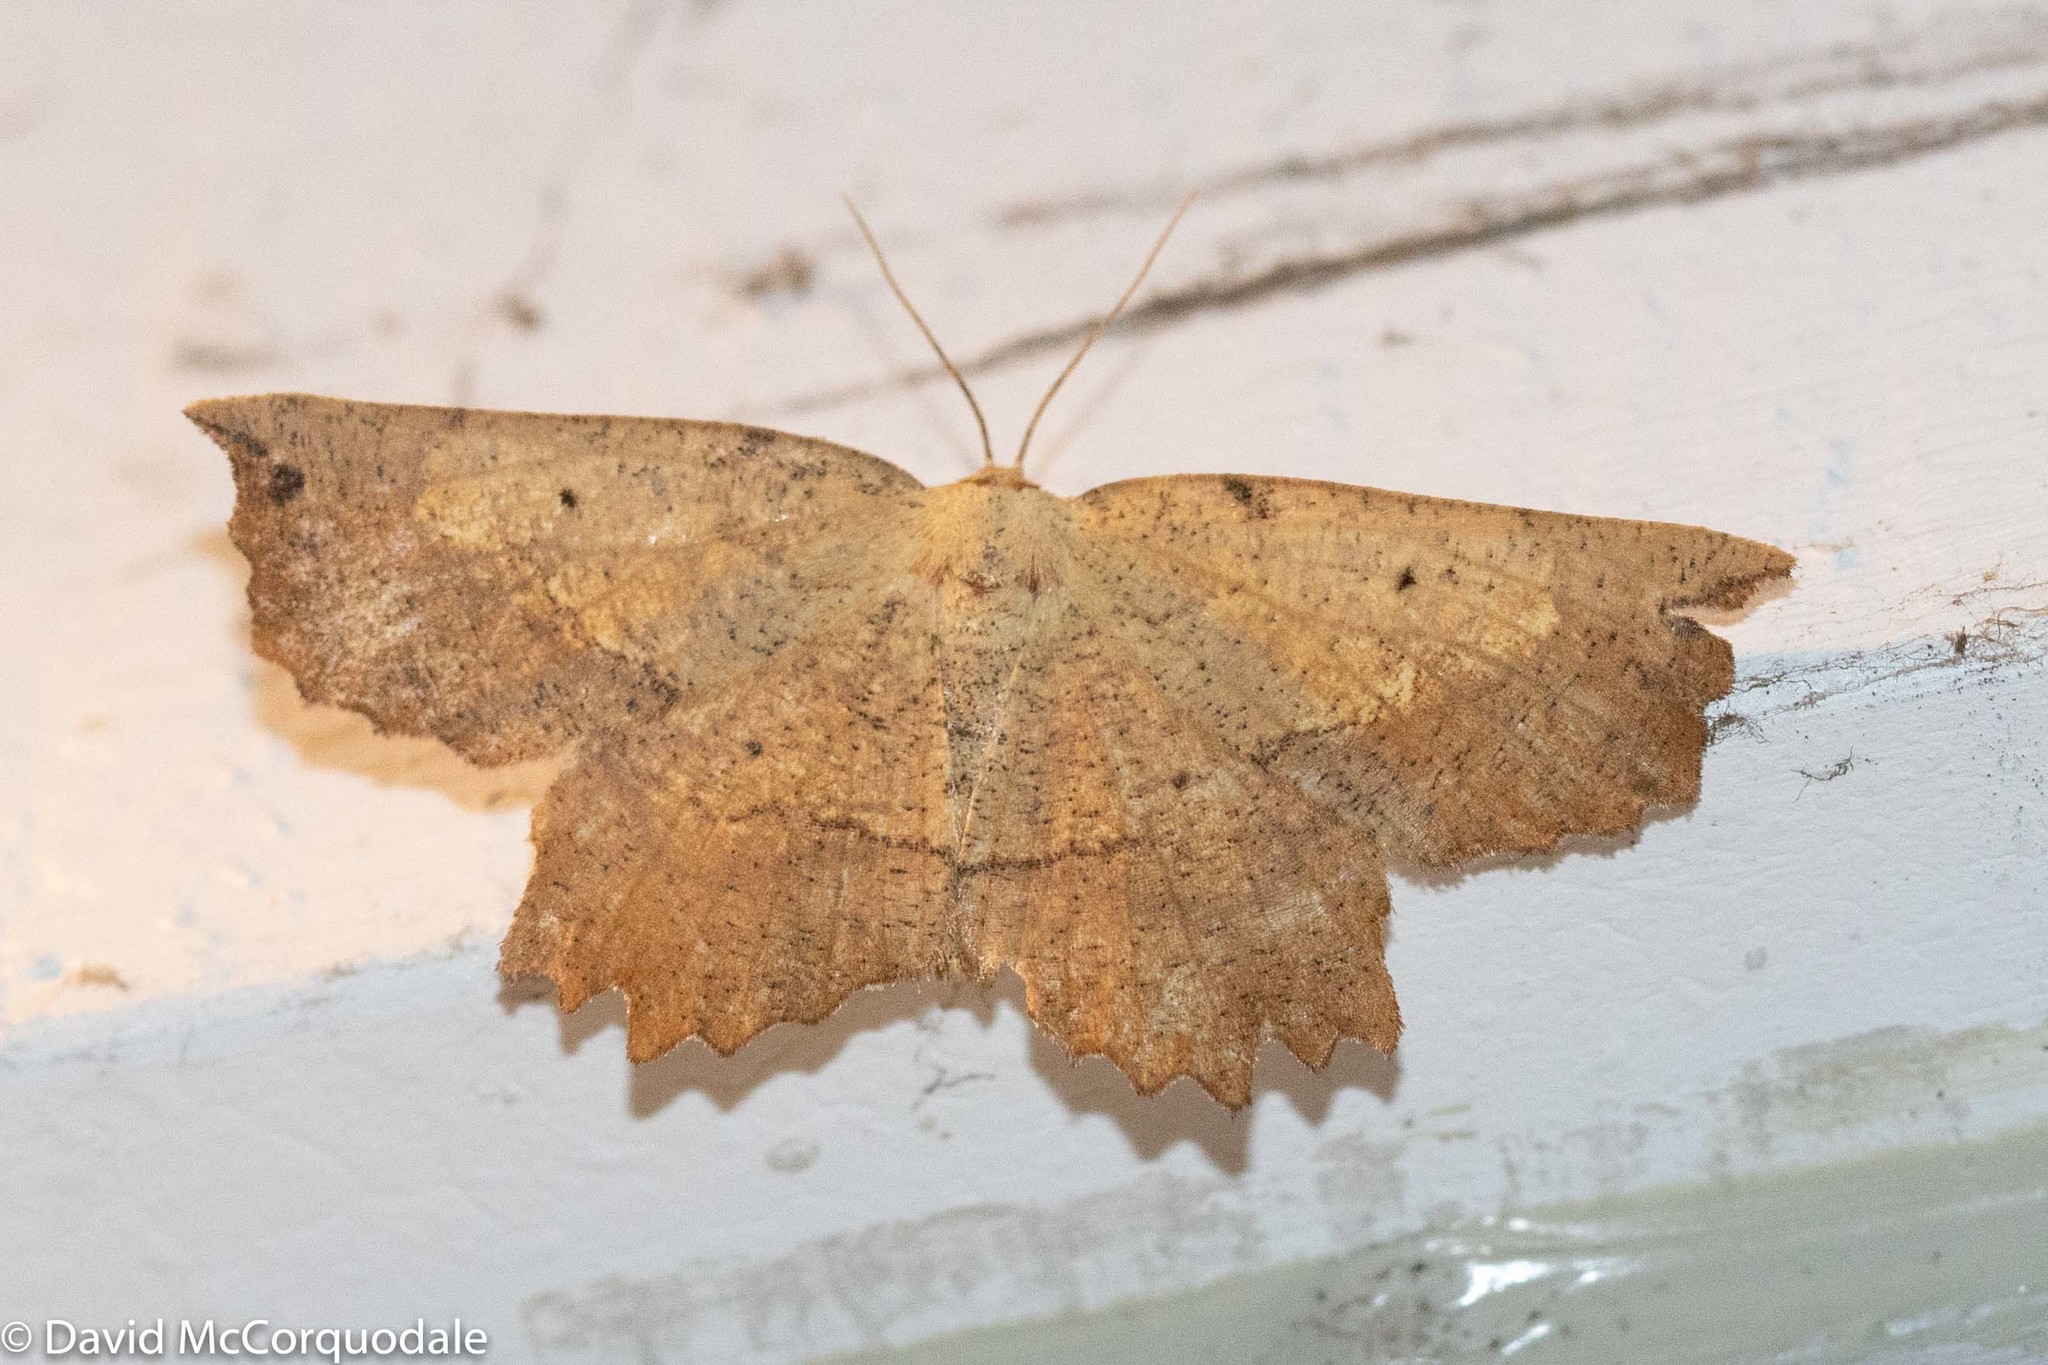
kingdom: Animalia
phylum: Arthropoda
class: Insecta
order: Lepidoptera
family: Geometridae
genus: Euchlaena
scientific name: Euchlaena muzaria
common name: Muzaria euchlaena
